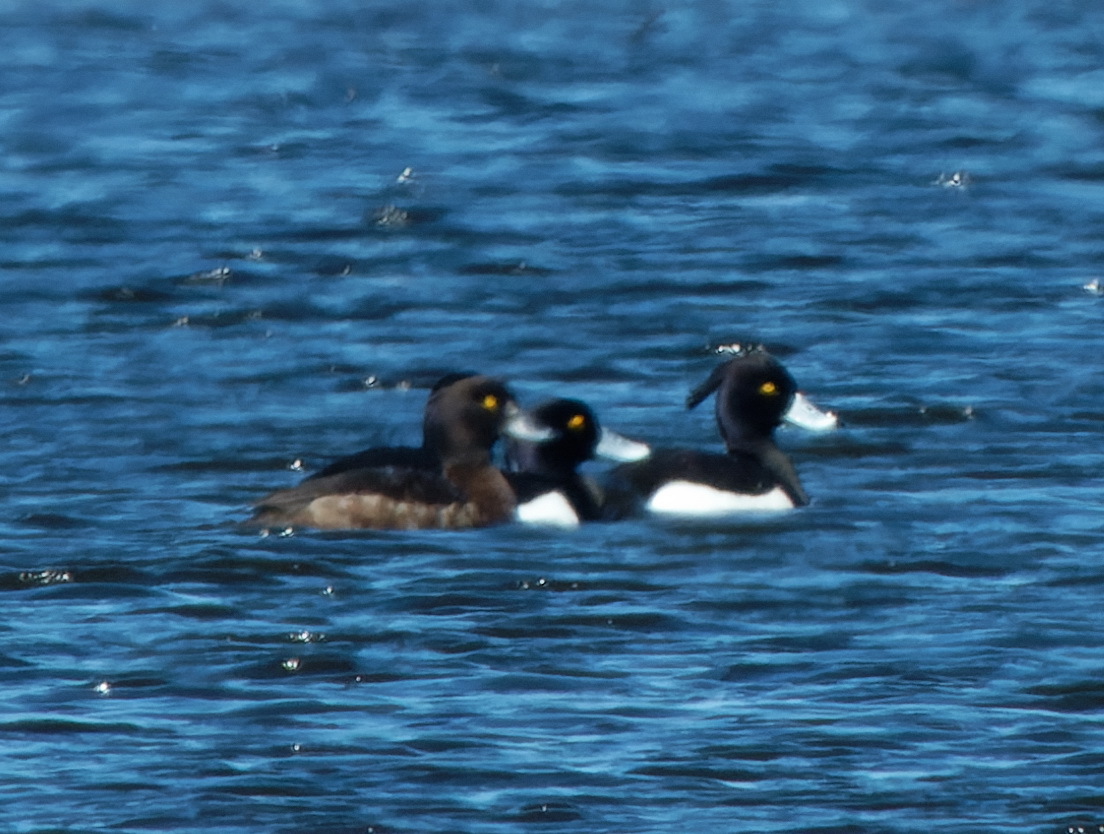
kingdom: Animalia
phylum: Chordata
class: Aves
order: Anseriformes
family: Anatidae
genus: Aythya
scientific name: Aythya fuligula
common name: Tufted duck
